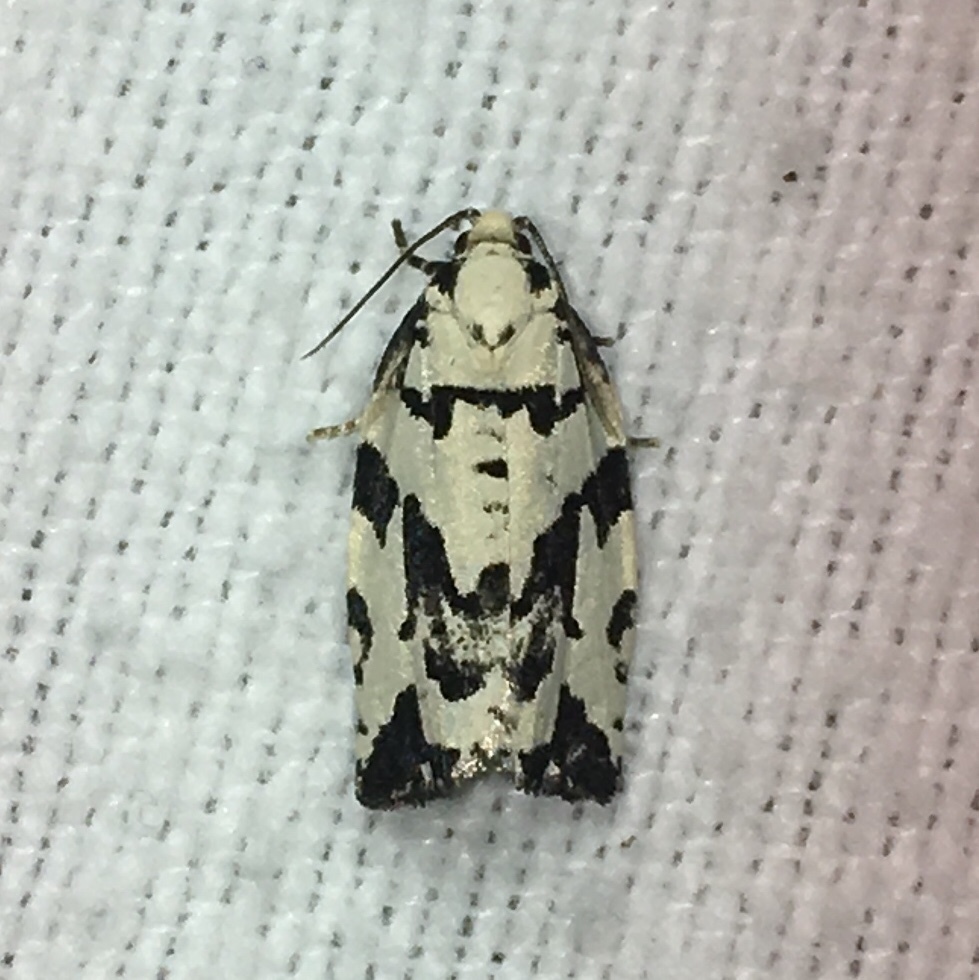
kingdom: Animalia
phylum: Arthropoda
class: Insecta
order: Lepidoptera
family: Tortricidae
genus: Archips
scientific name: Archips dissitana
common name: Boldly-marked archips moth
